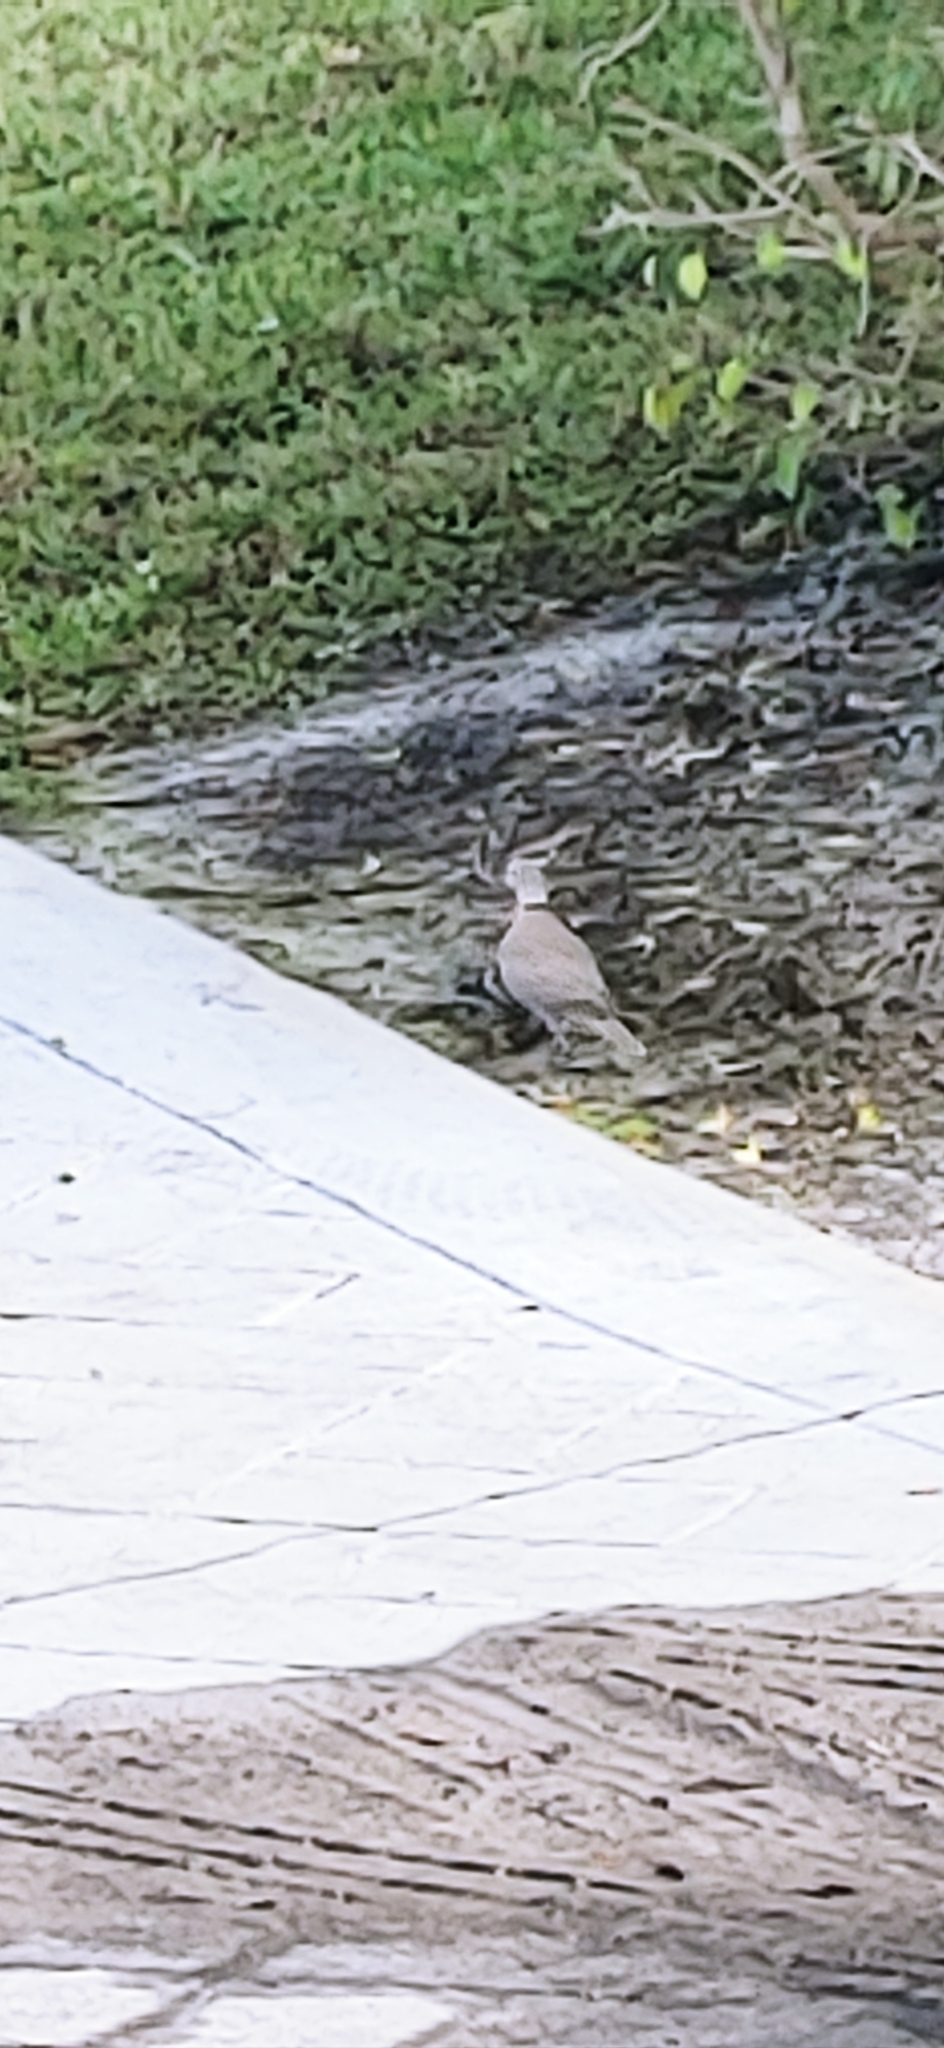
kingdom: Animalia
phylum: Chordata
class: Aves
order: Columbiformes
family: Columbidae
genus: Streptopelia
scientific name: Streptopelia decaocto
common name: Eurasian collared dove
